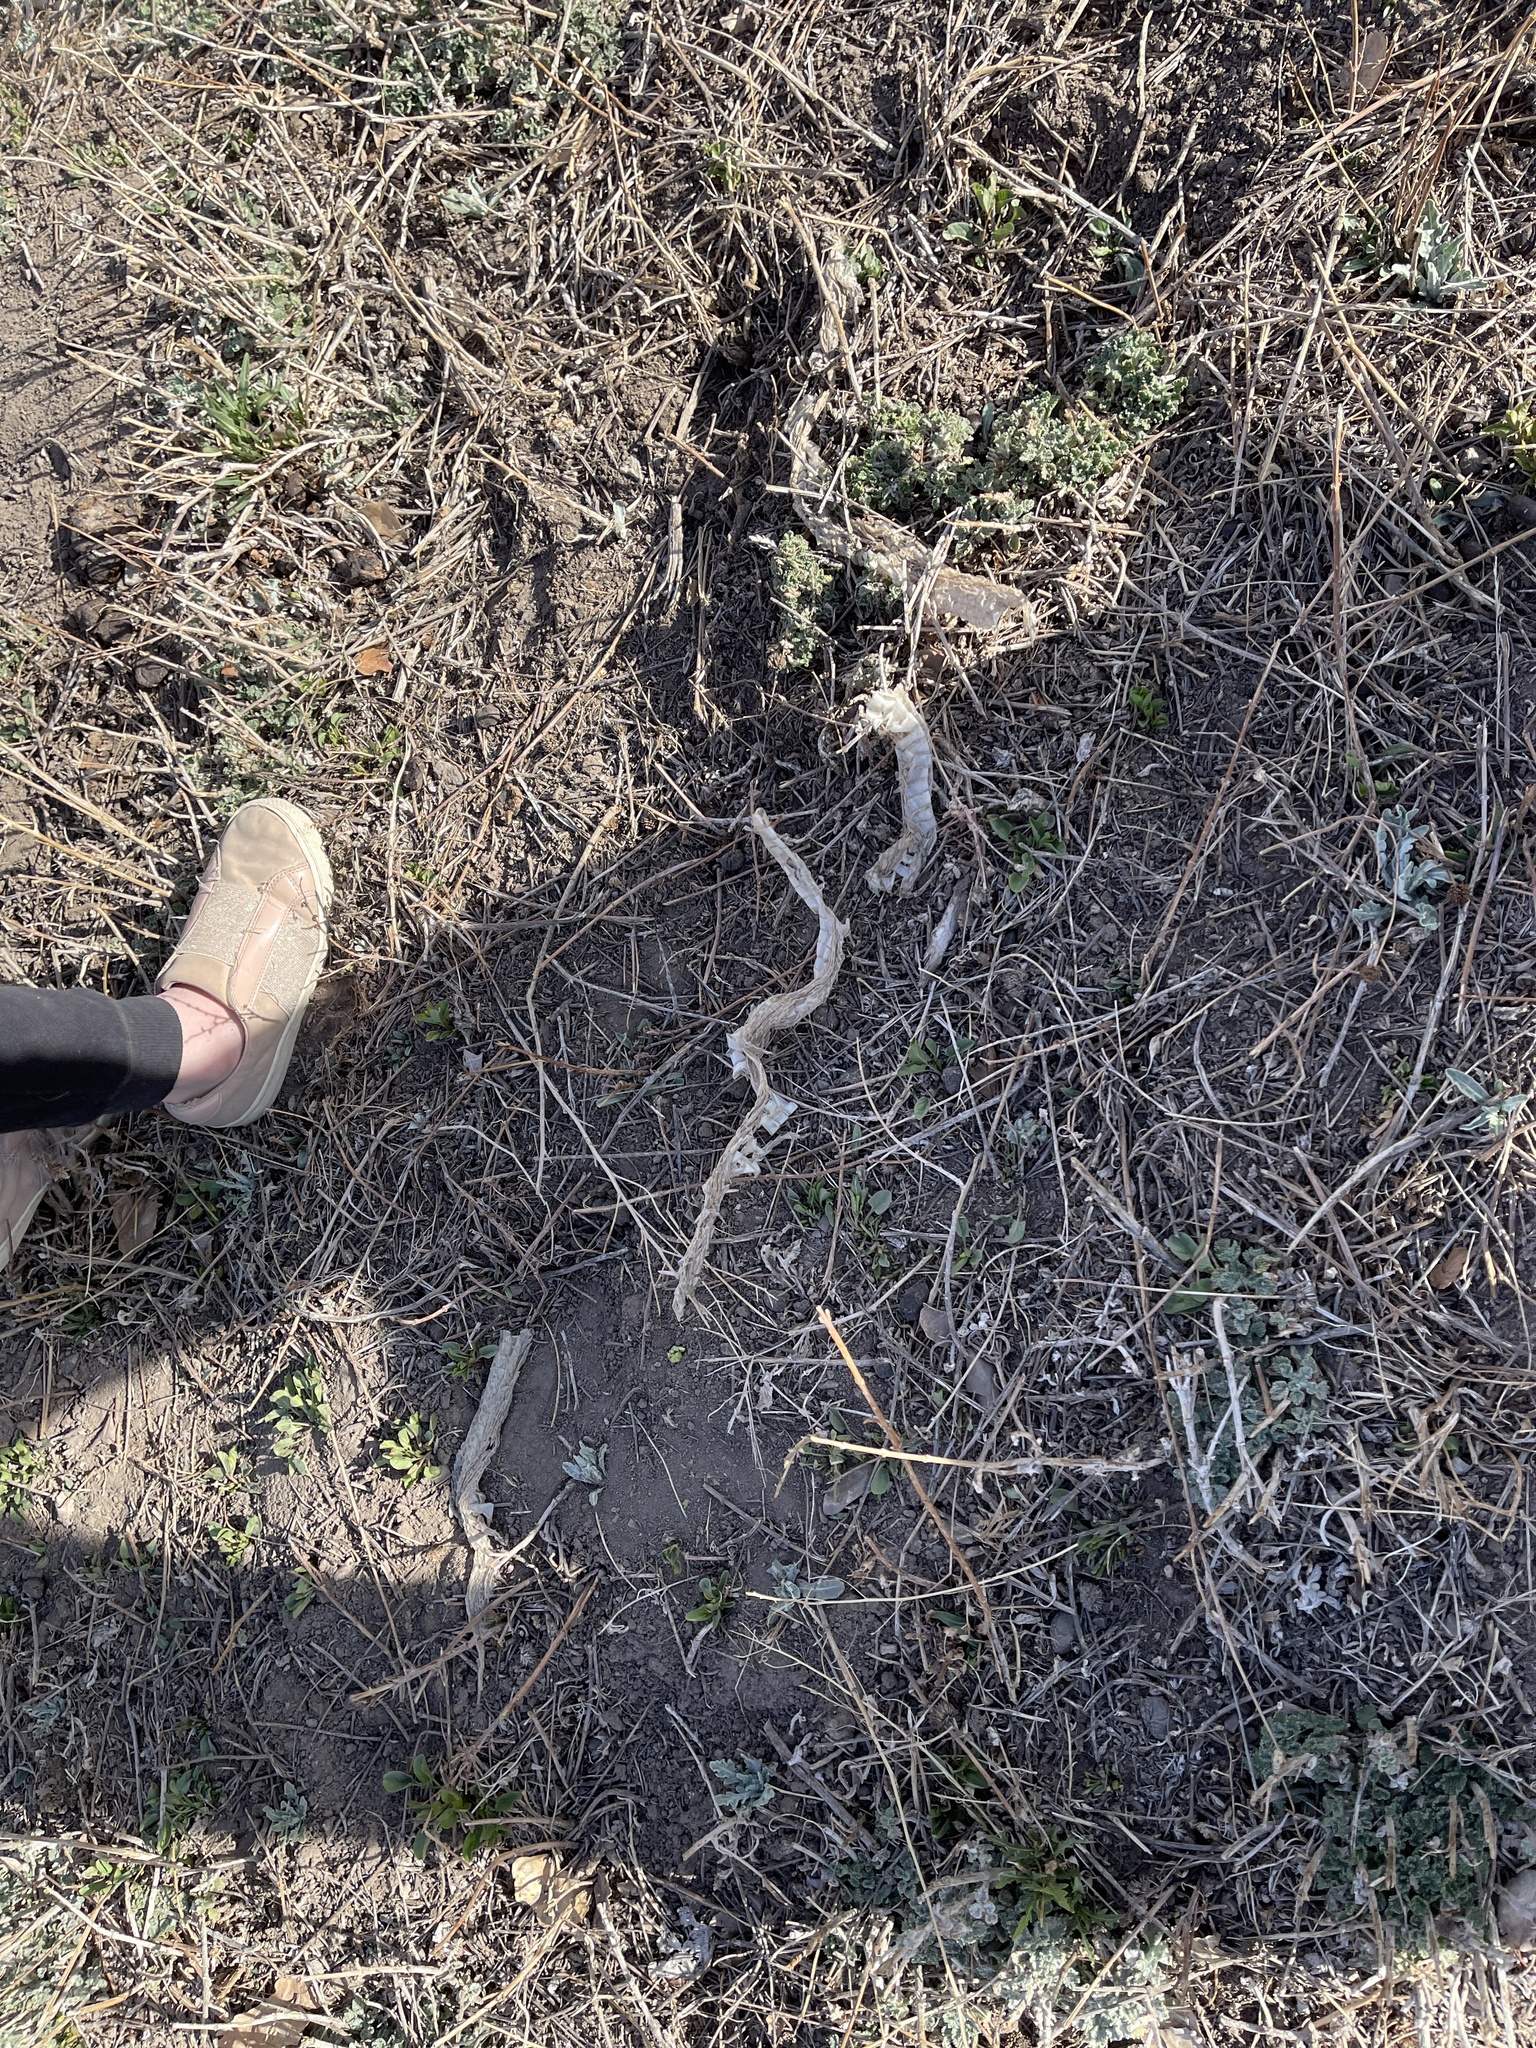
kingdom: Animalia
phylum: Chordata
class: Squamata
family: Colubridae
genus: Pituophis
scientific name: Pituophis catenifer
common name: Gopher snake
